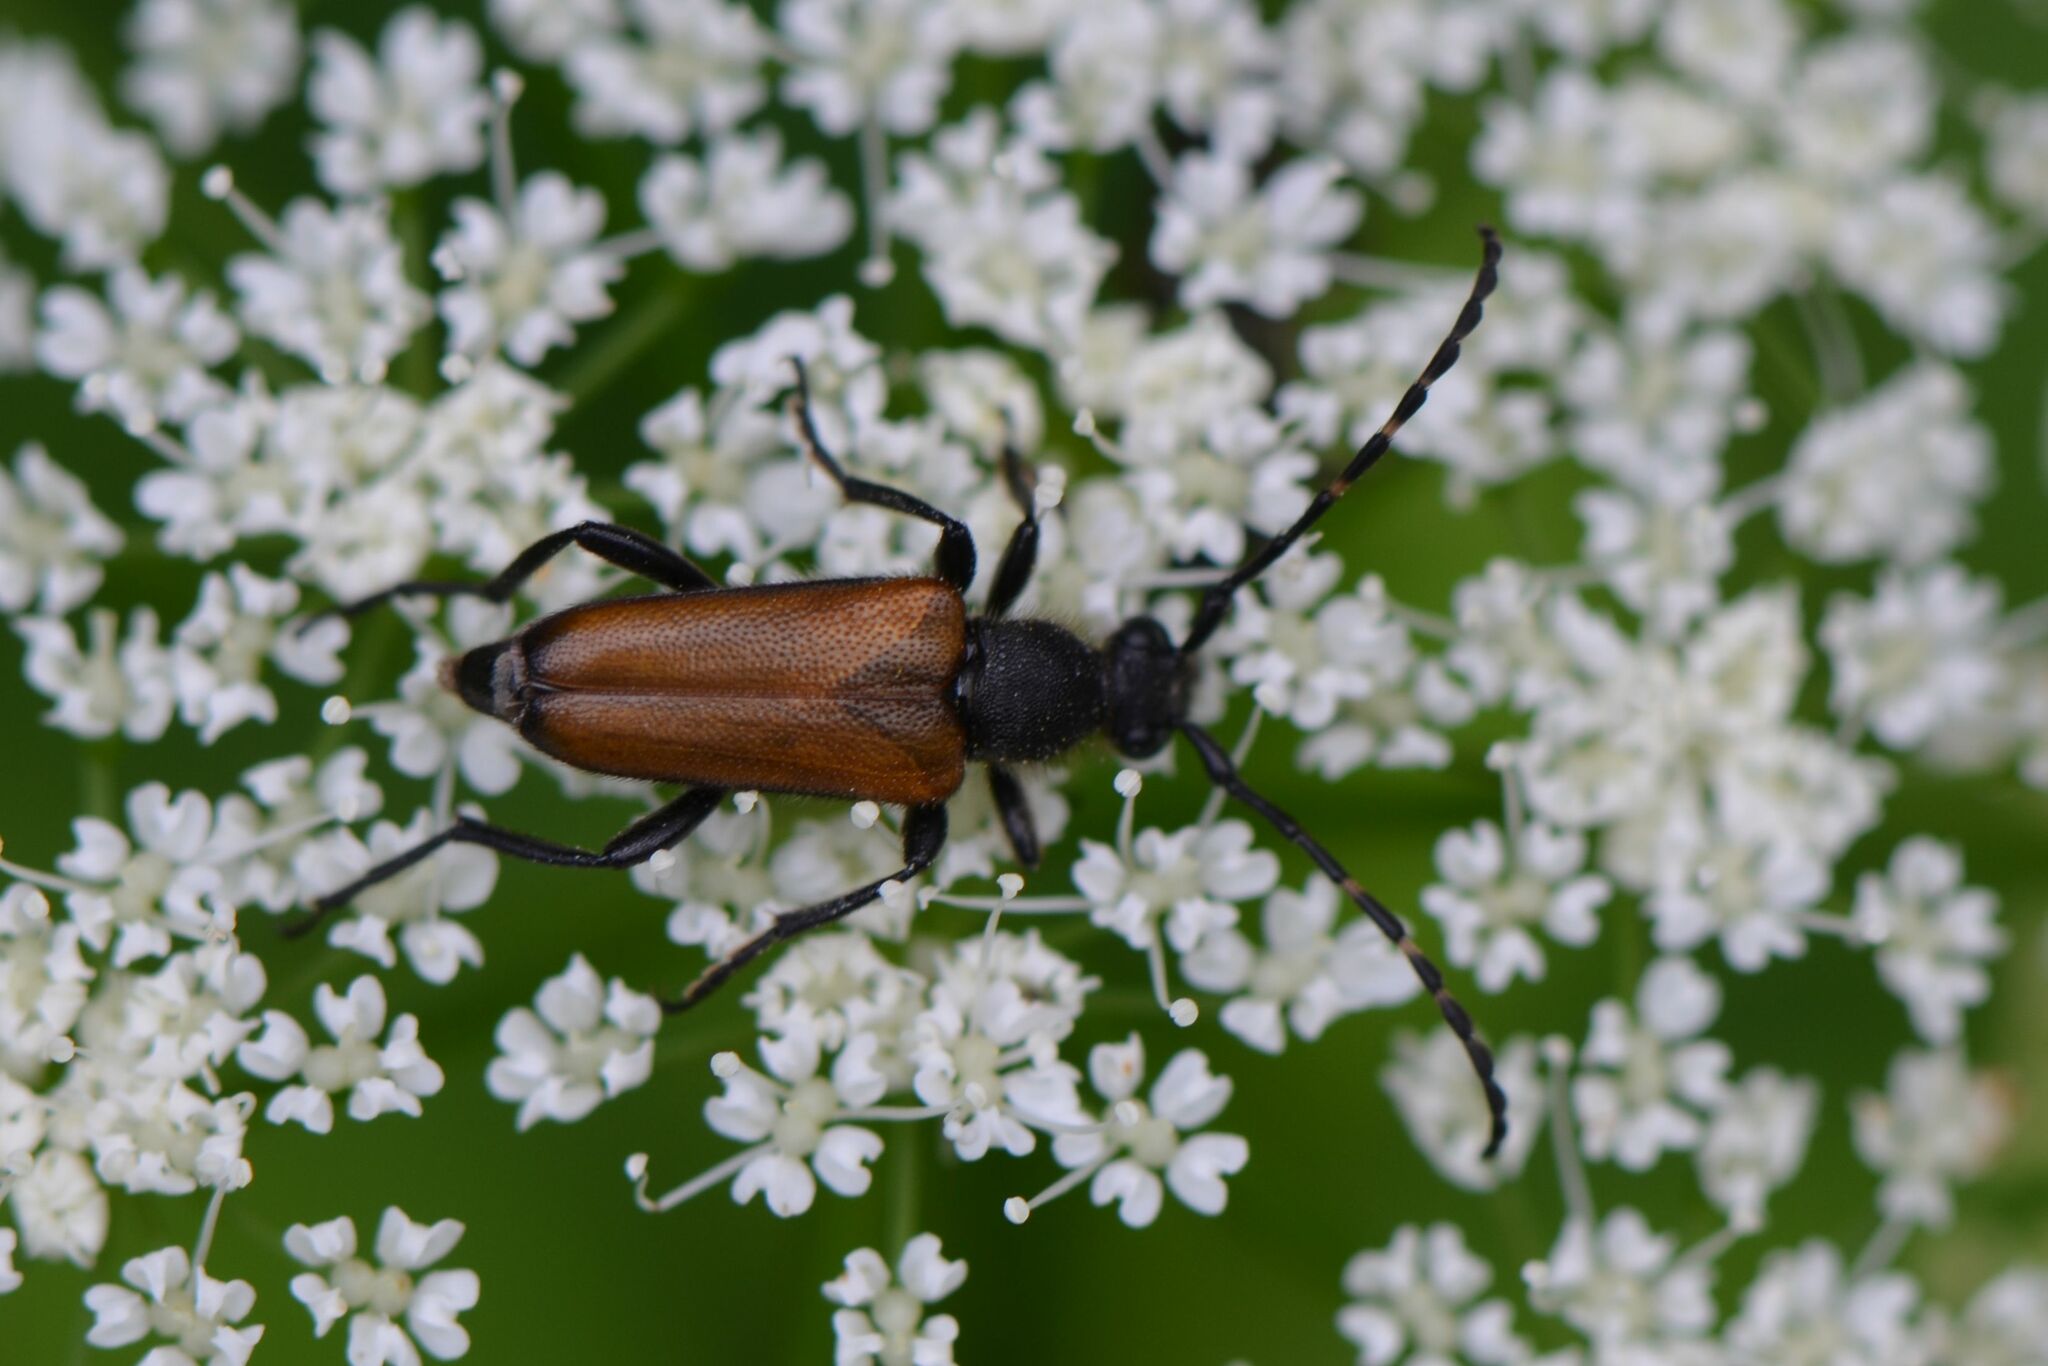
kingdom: Animalia
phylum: Arthropoda
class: Insecta
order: Coleoptera
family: Cerambycidae
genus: Paracorymbia
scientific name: Paracorymbia maculicornis
